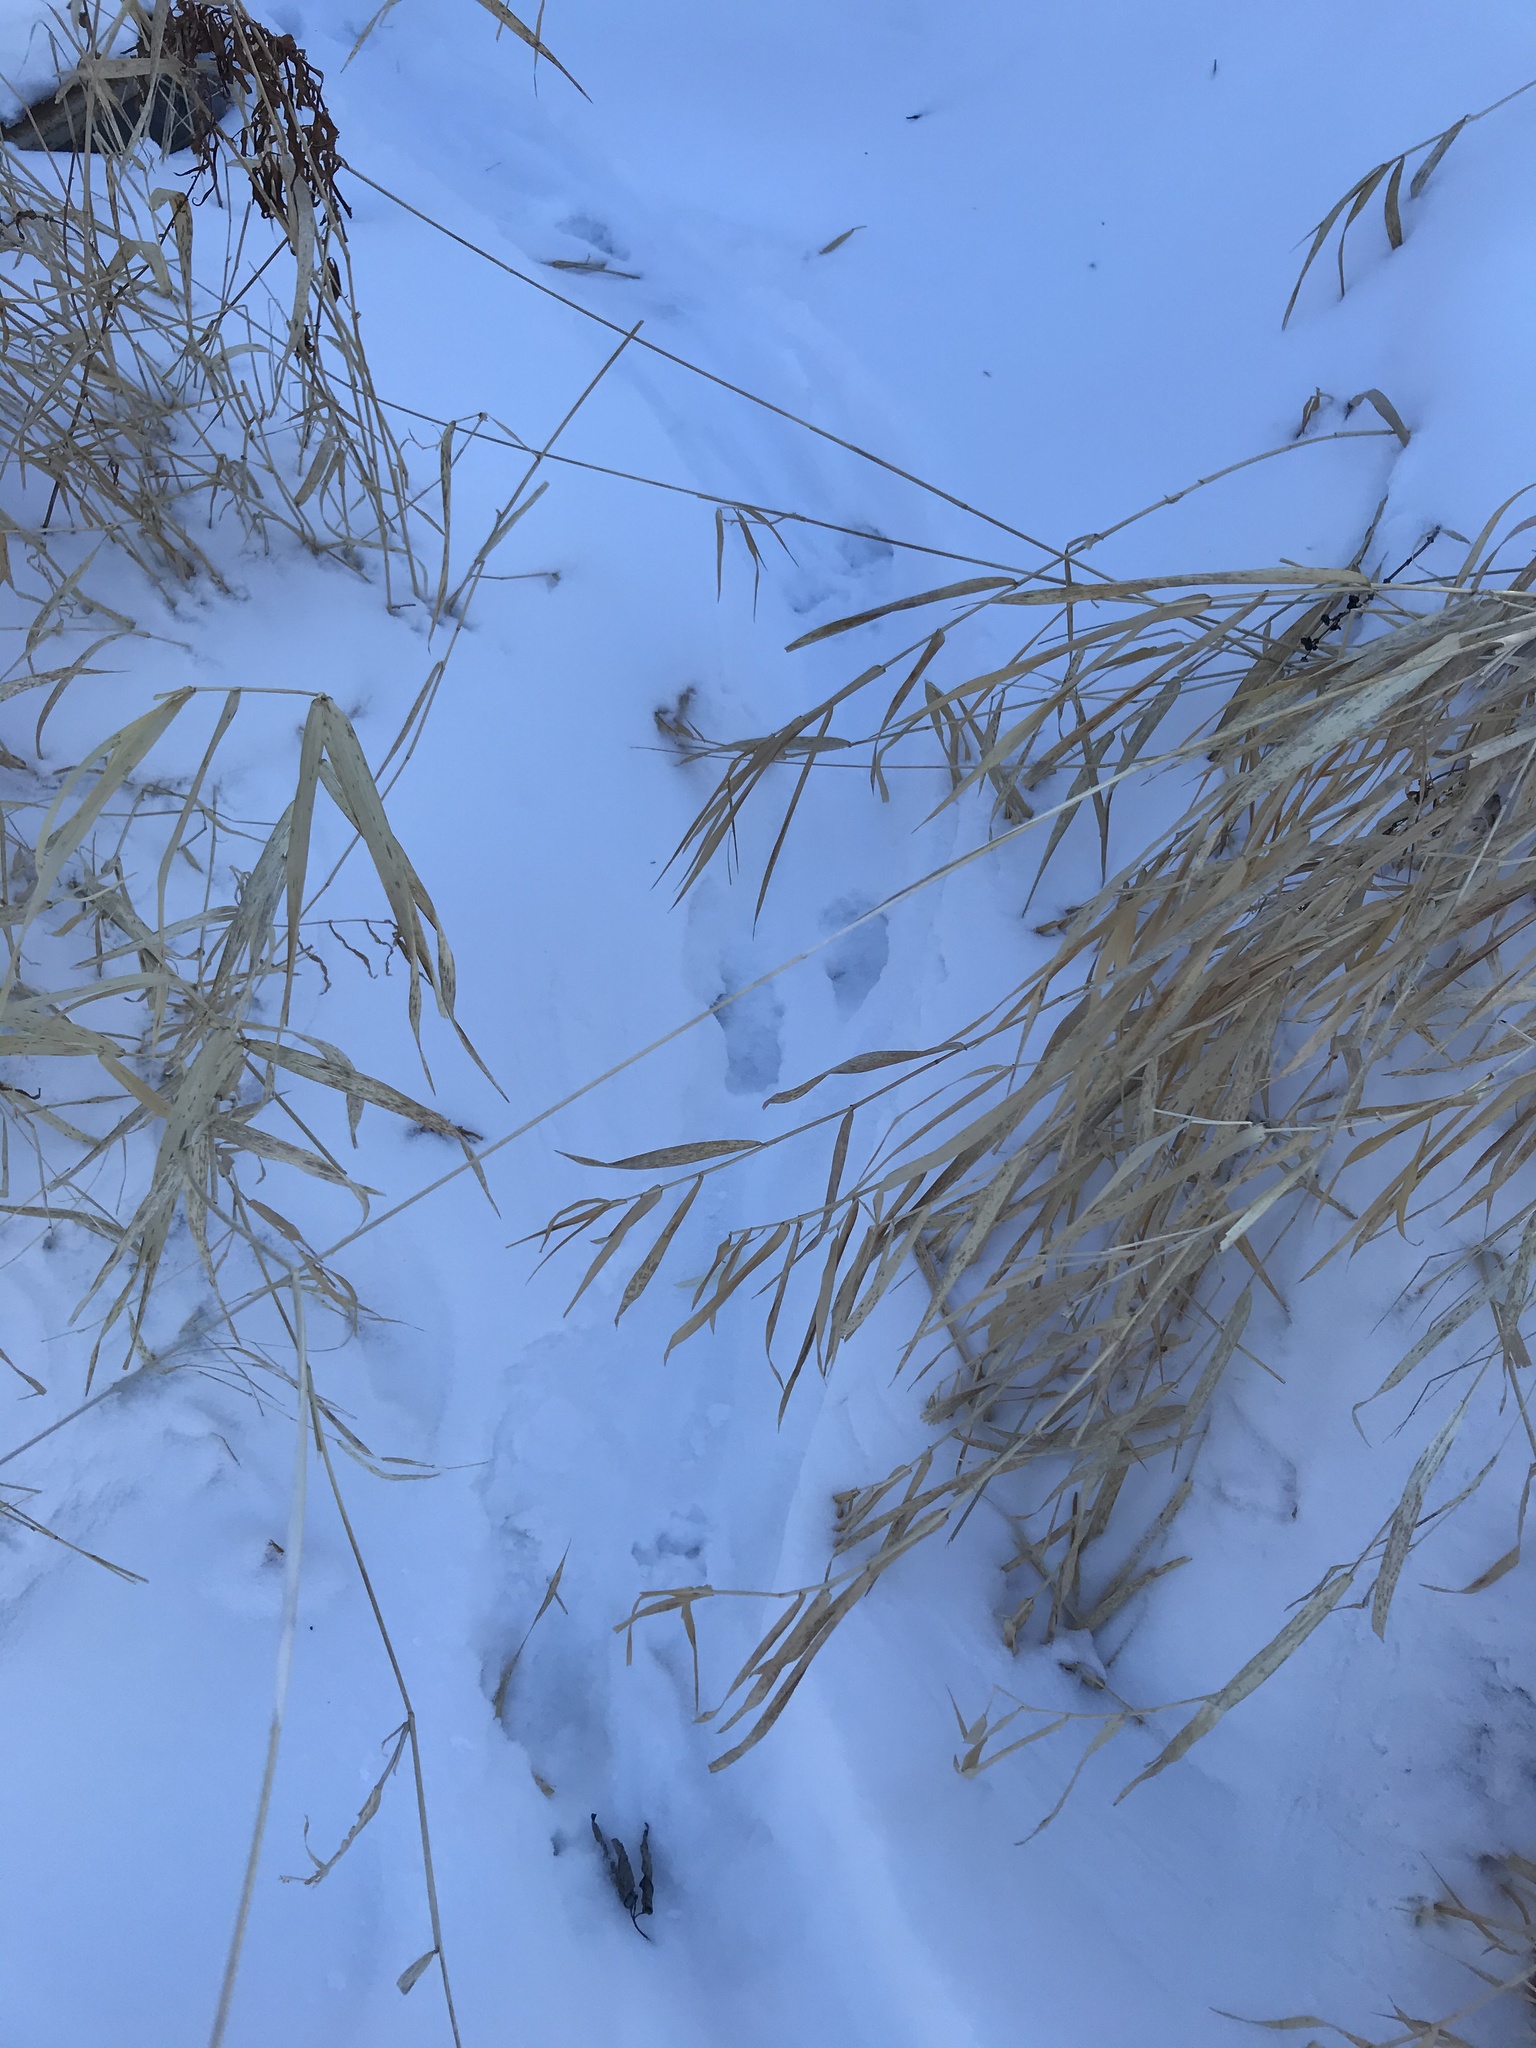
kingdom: Animalia
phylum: Chordata
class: Mammalia
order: Carnivora
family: Mustelidae
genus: Lontra
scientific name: Lontra canadensis
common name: North american river otter
